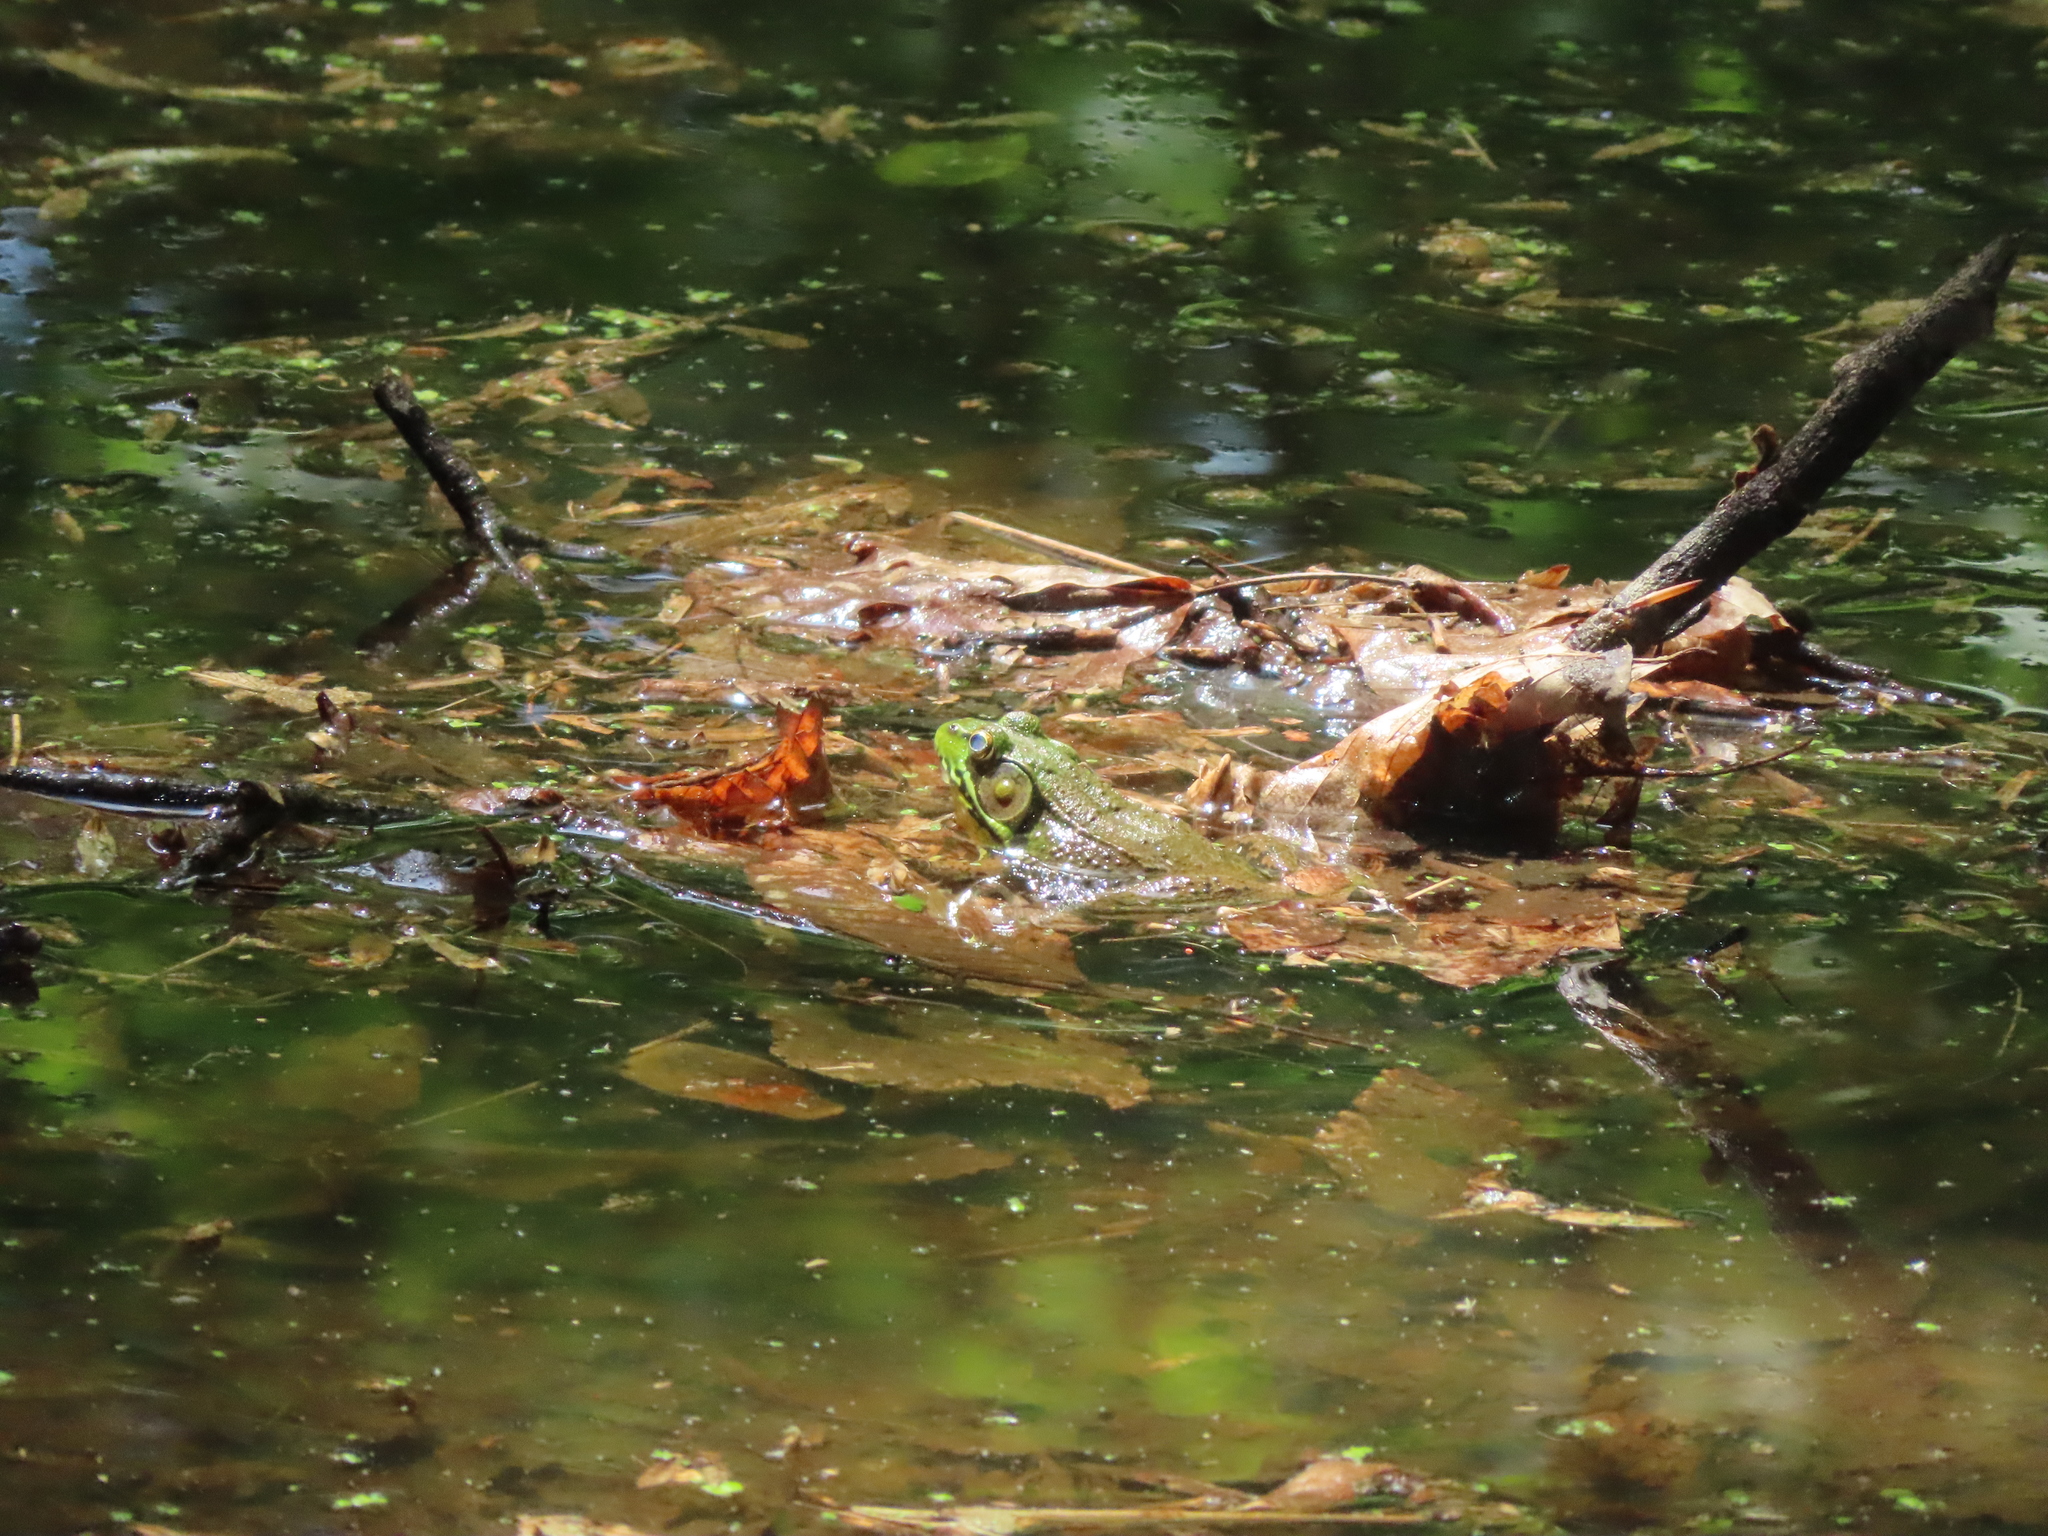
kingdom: Animalia
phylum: Chordata
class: Amphibia
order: Anura
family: Ranidae
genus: Lithobates
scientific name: Lithobates clamitans
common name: Green frog
